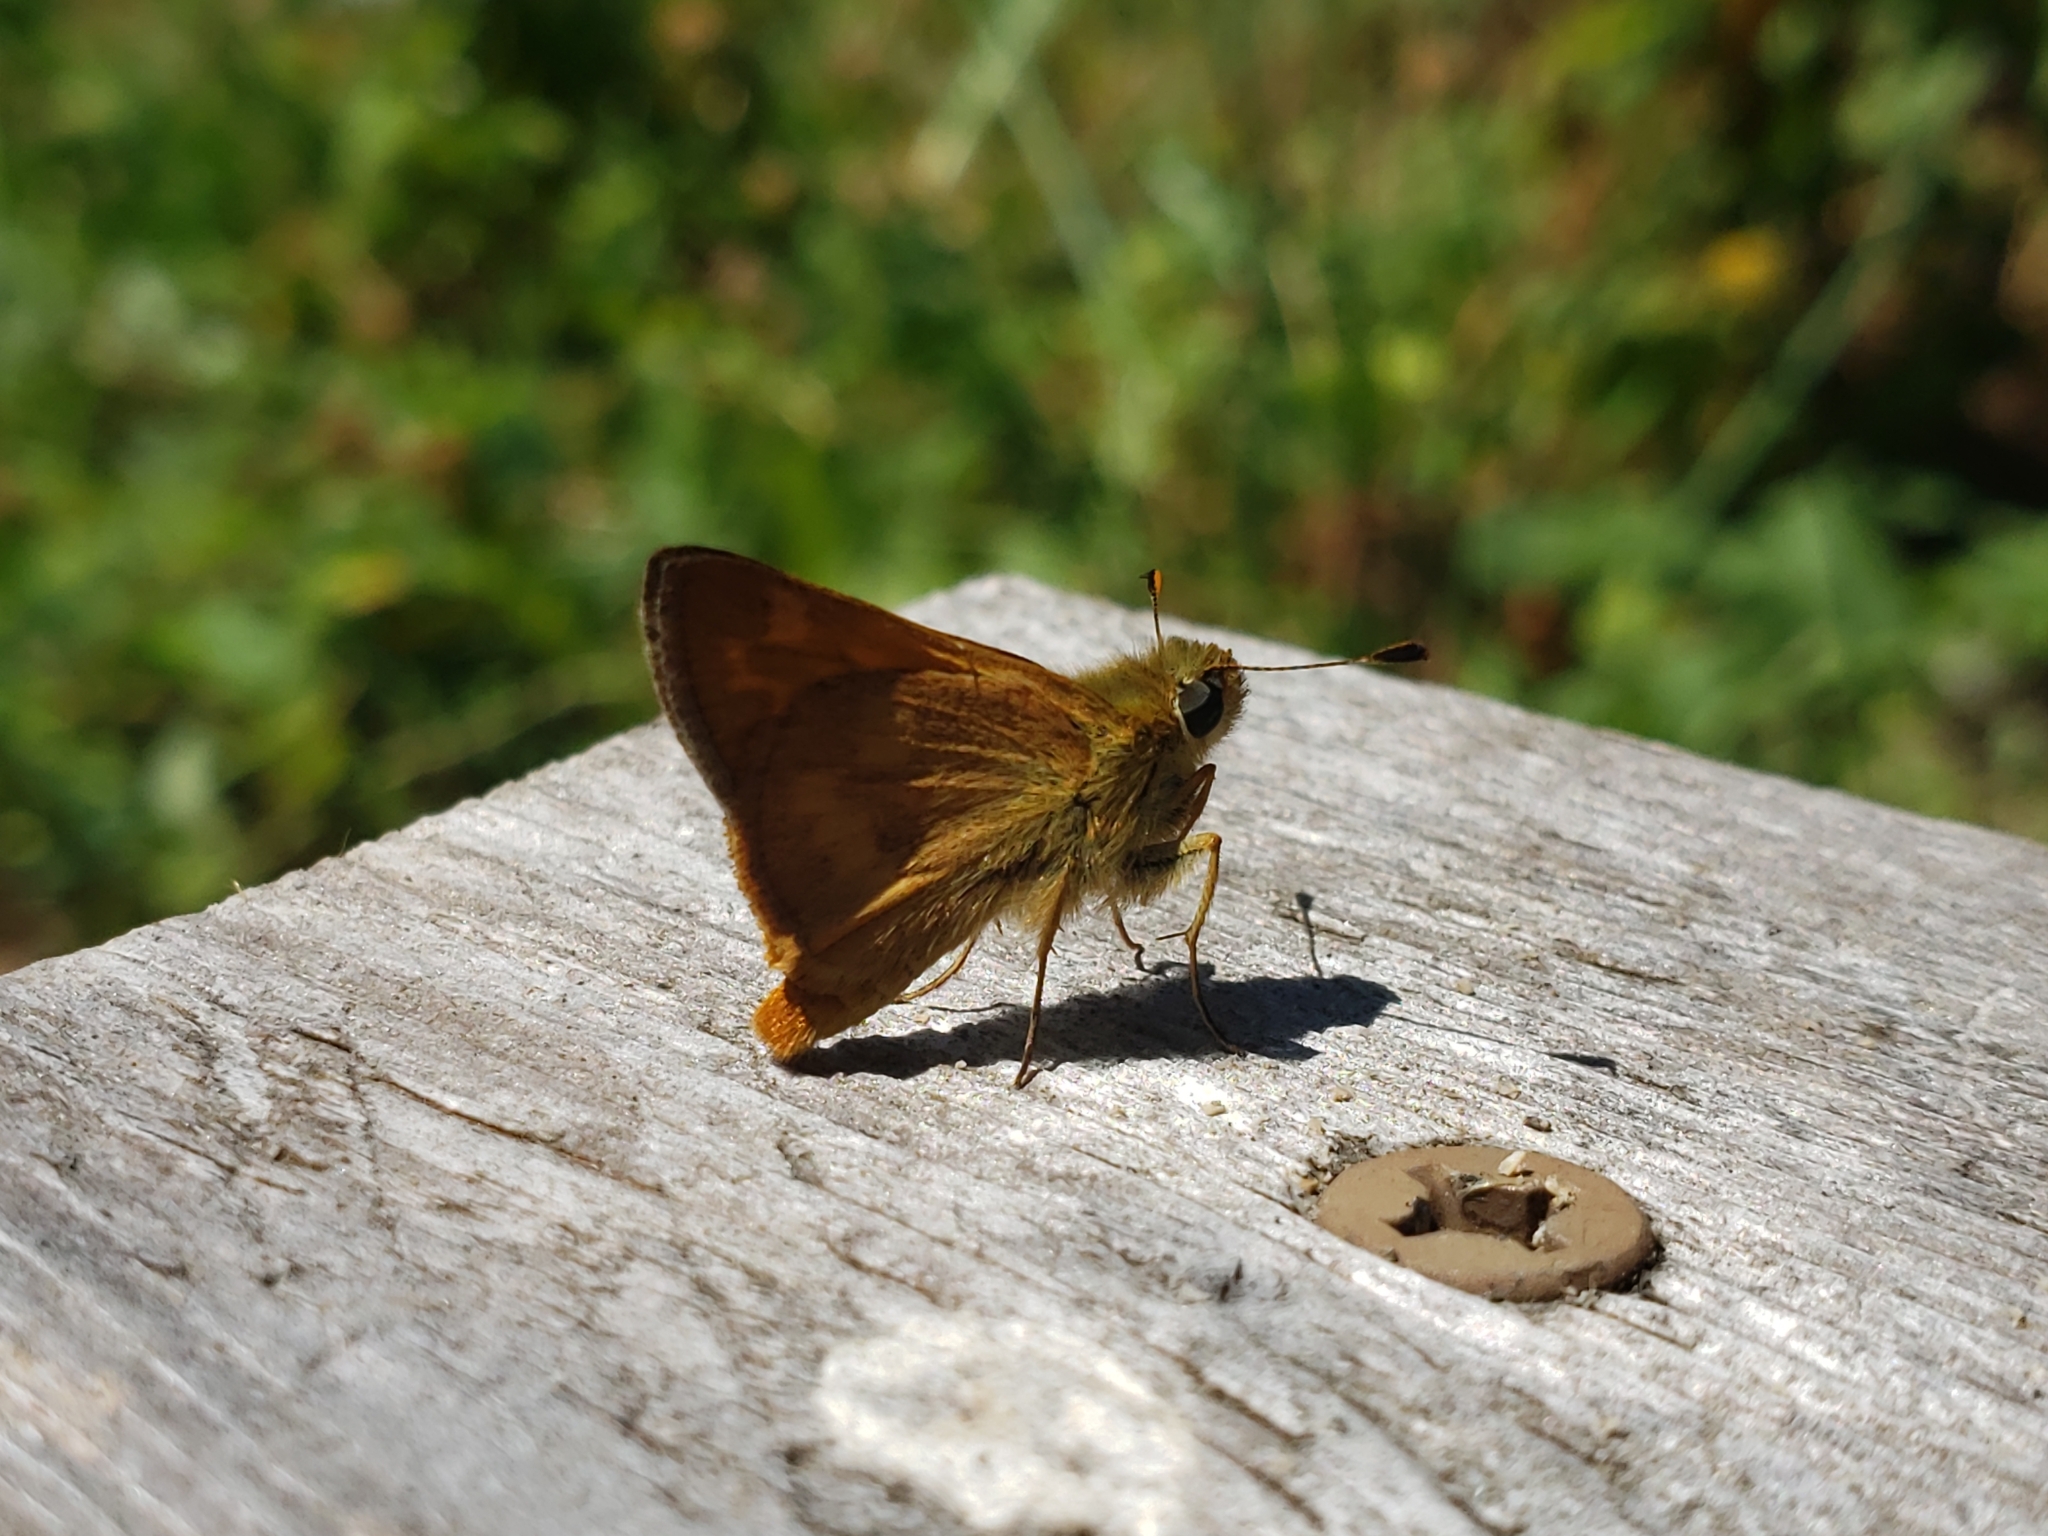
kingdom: Animalia
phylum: Arthropoda
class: Insecta
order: Lepidoptera
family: Hesperiidae
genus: Ochlodes
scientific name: Ochlodes sylvanoides
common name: Woodland skipper
